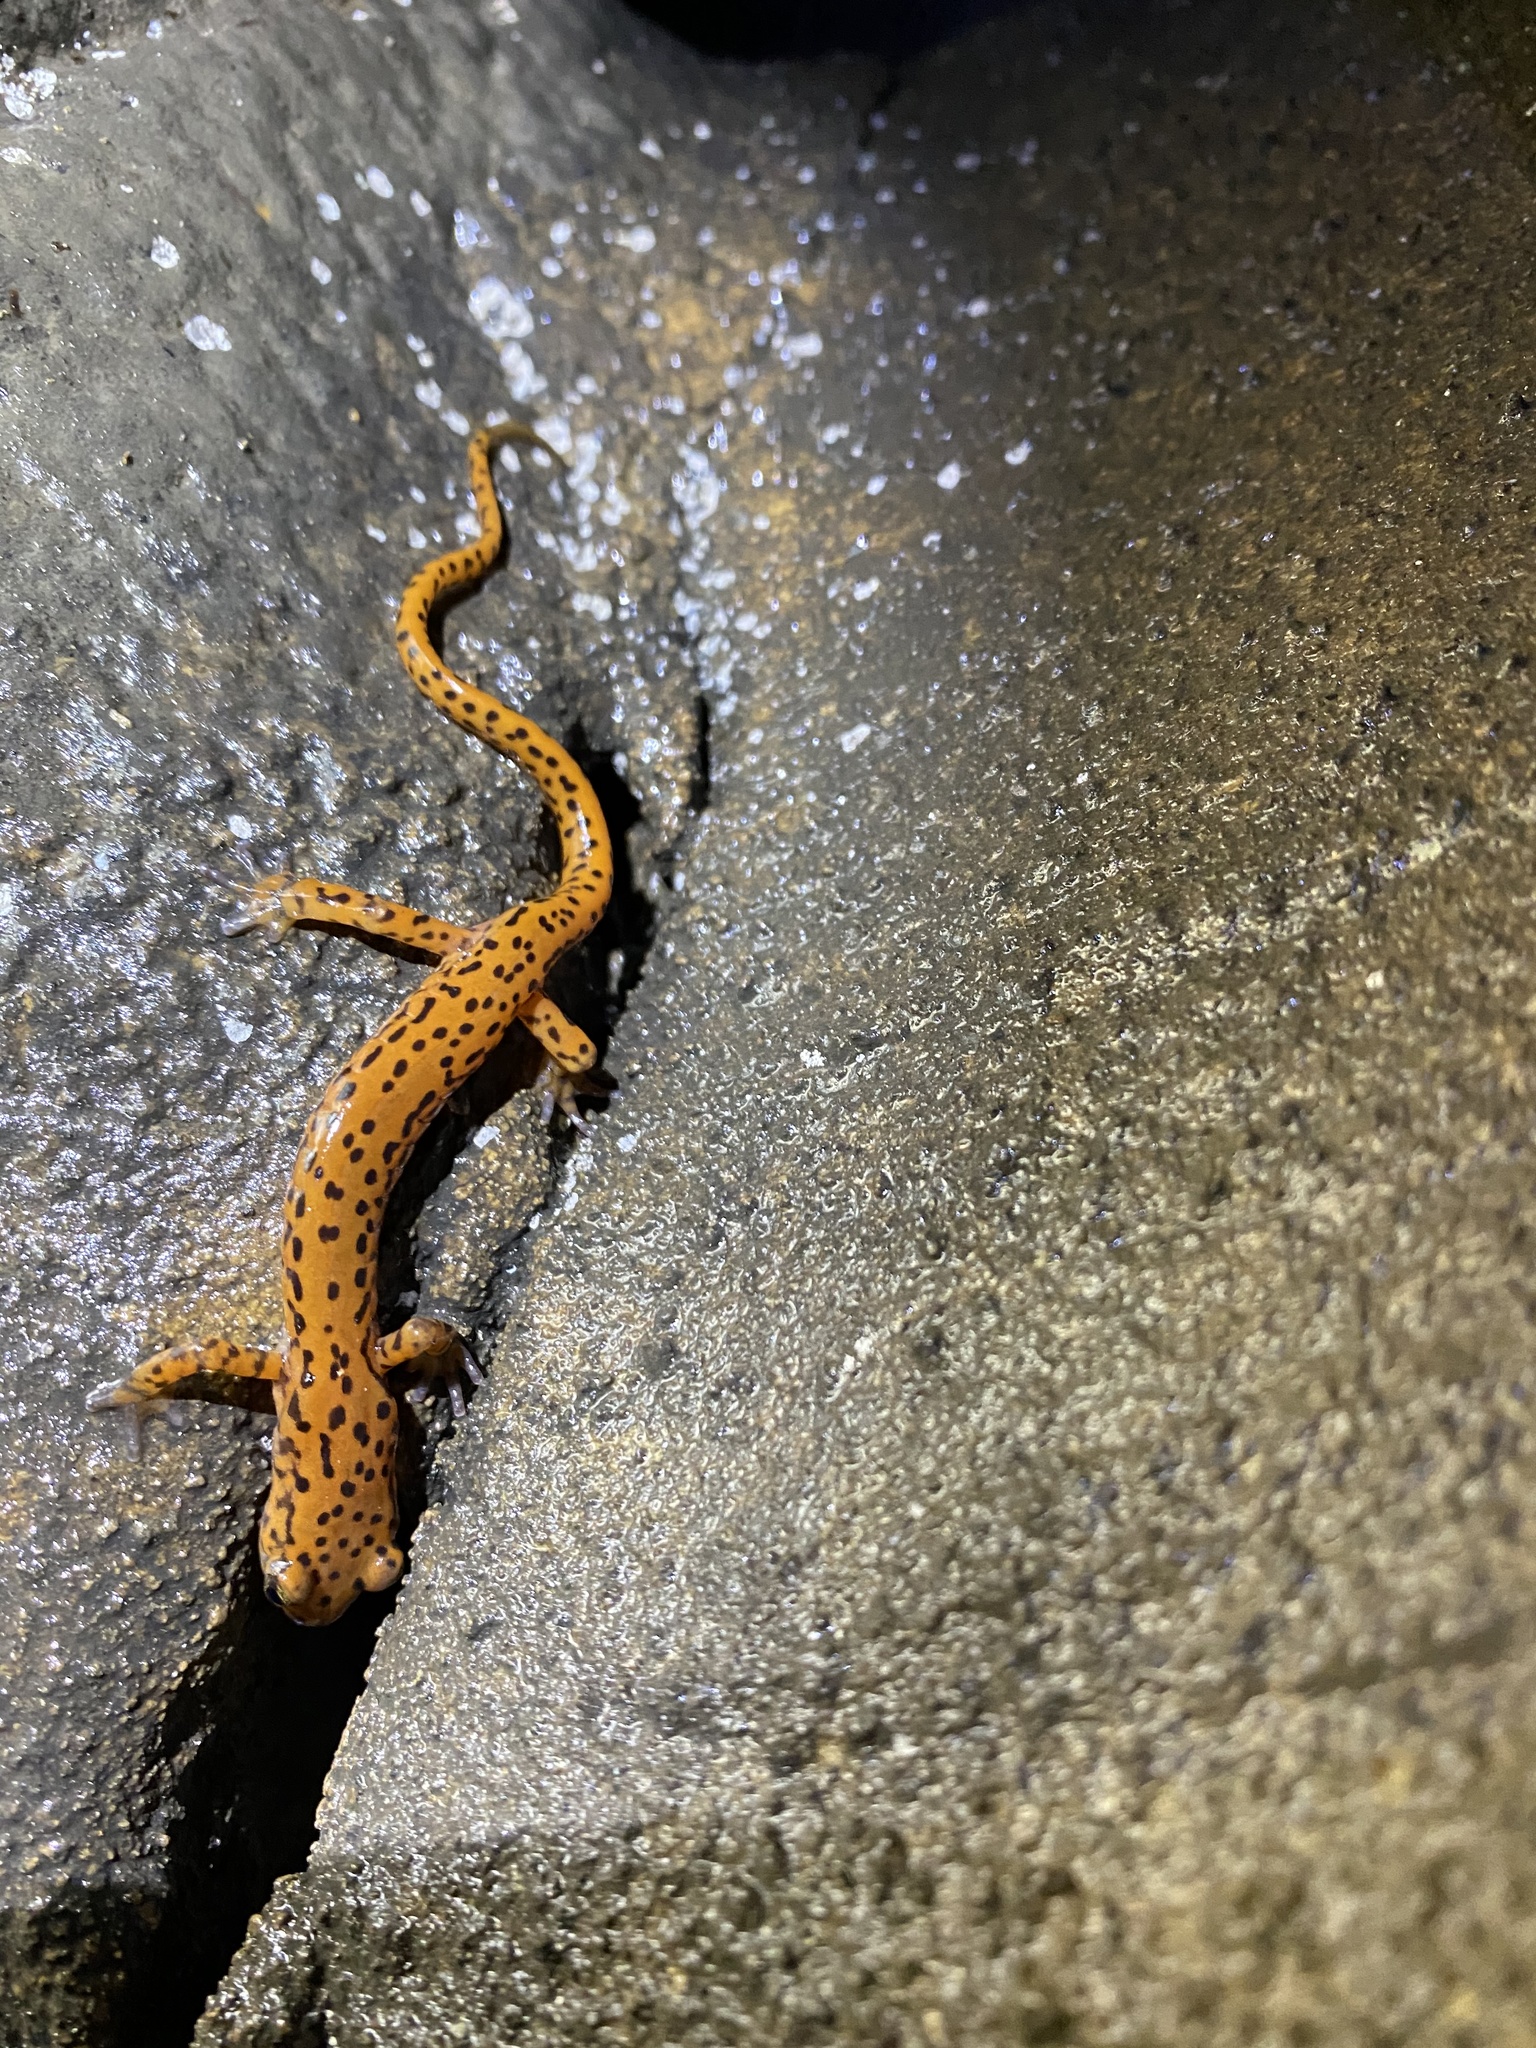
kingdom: Animalia
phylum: Chordata
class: Amphibia
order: Caudata
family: Plethodontidae
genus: Eurycea
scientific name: Eurycea lucifuga
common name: Cave salamander
